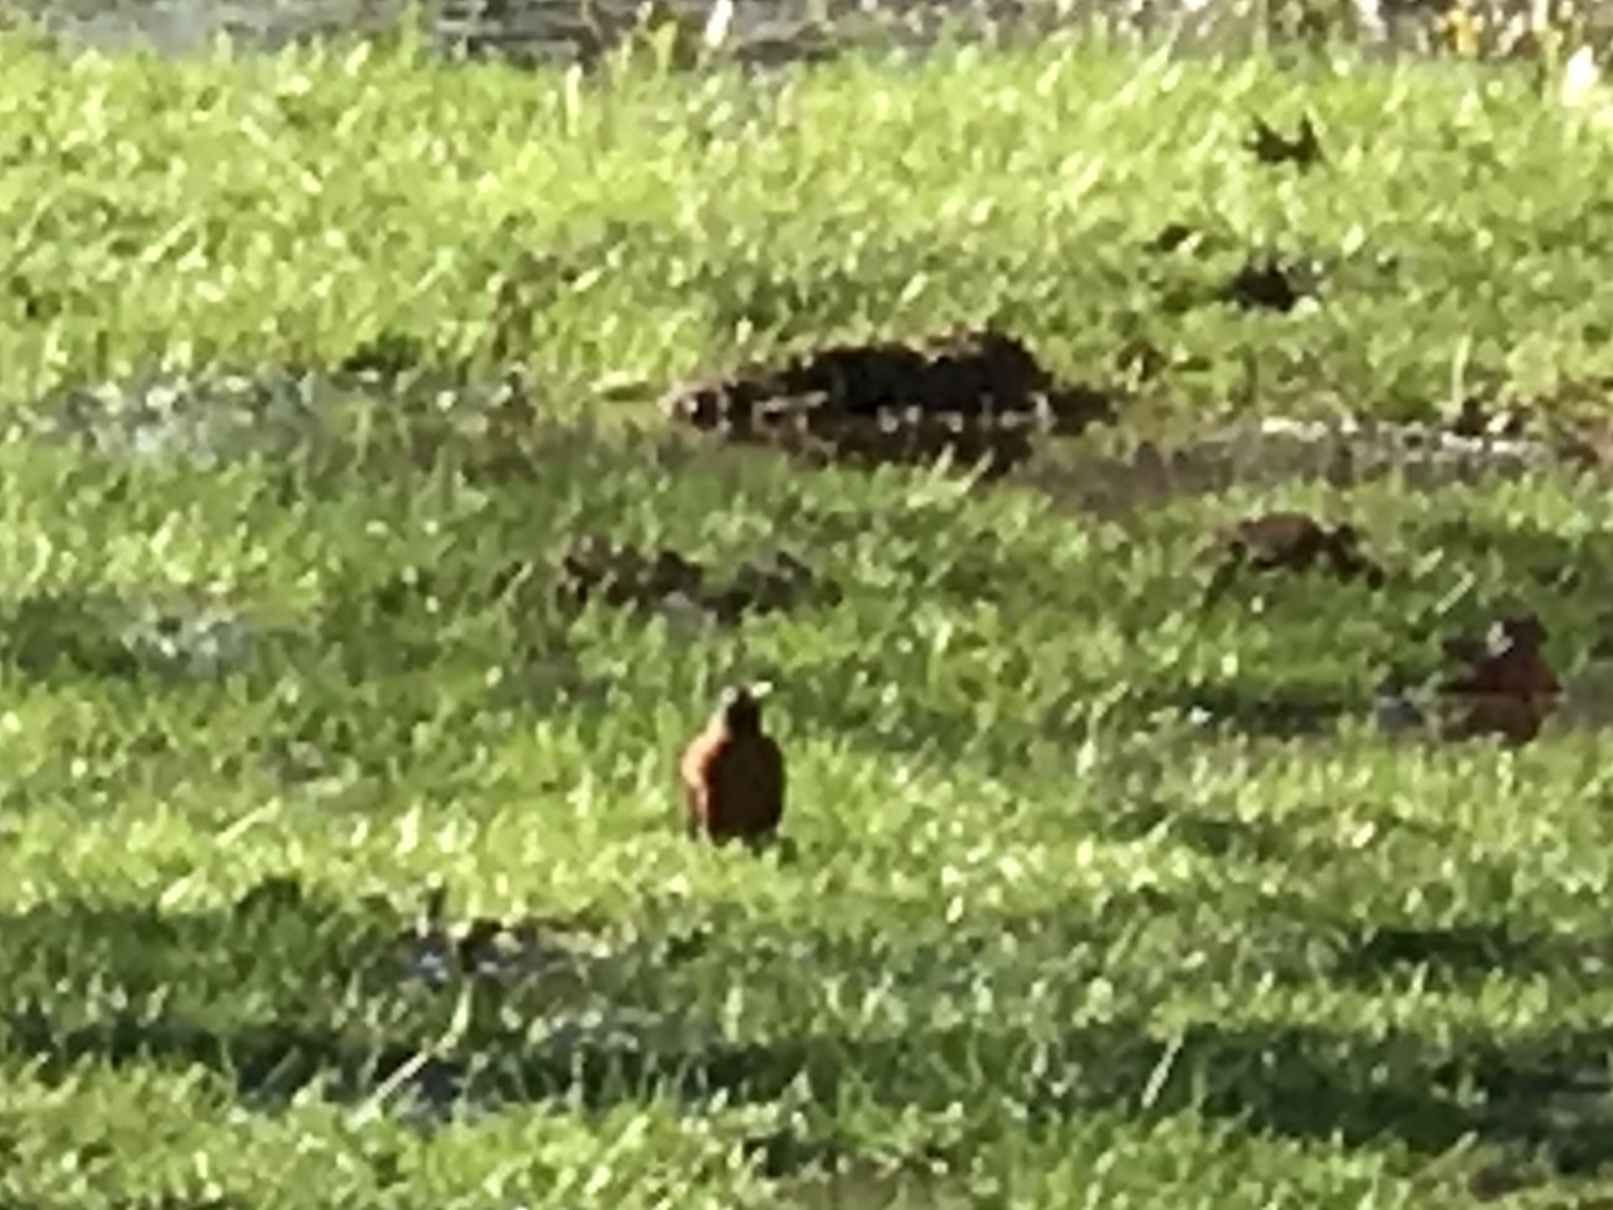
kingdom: Animalia
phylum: Chordata
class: Aves
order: Passeriformes
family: Turdidae
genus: Turdus
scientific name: Turdus migratorius
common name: American robin
